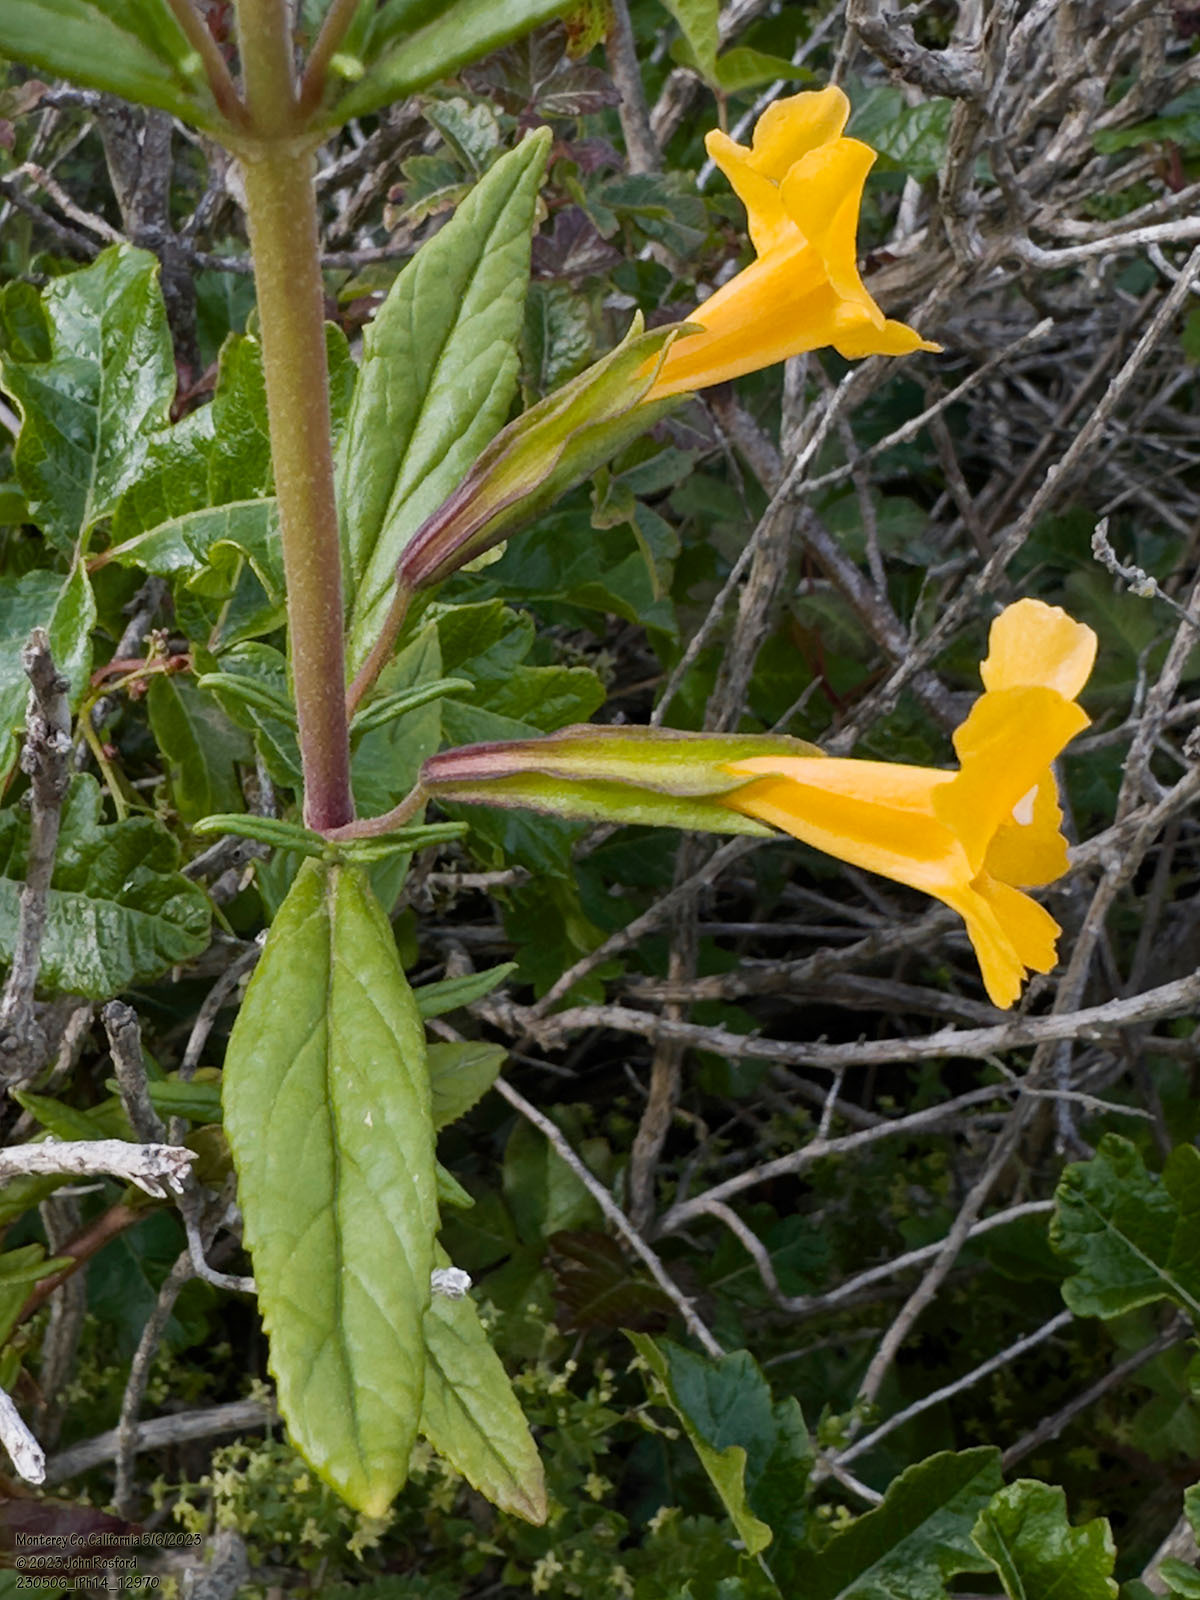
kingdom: Plantae
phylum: Tracheophyta
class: Magnoliopsida
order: Lamiales
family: Phrymaceae
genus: Diplacus
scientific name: Diplacus aurantiacus
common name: Bush monkey-flower
